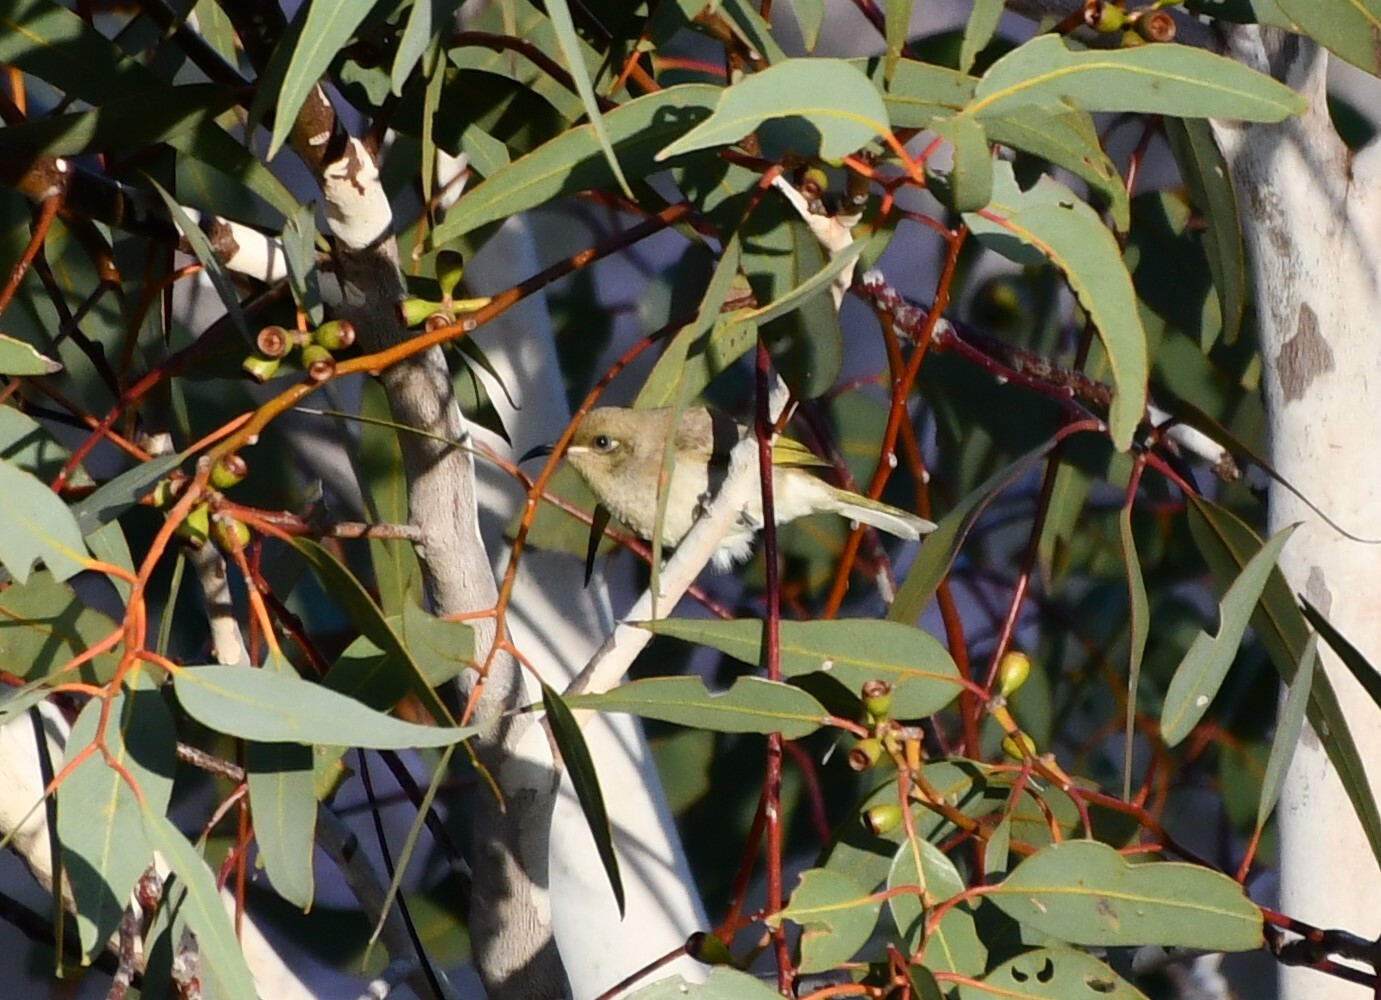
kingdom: Animalia
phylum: Chordata
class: Aves
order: Passeriformes
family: Meliphagidae
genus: Lichmera
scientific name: Lichmera indistincta
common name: Brown honeyeater
